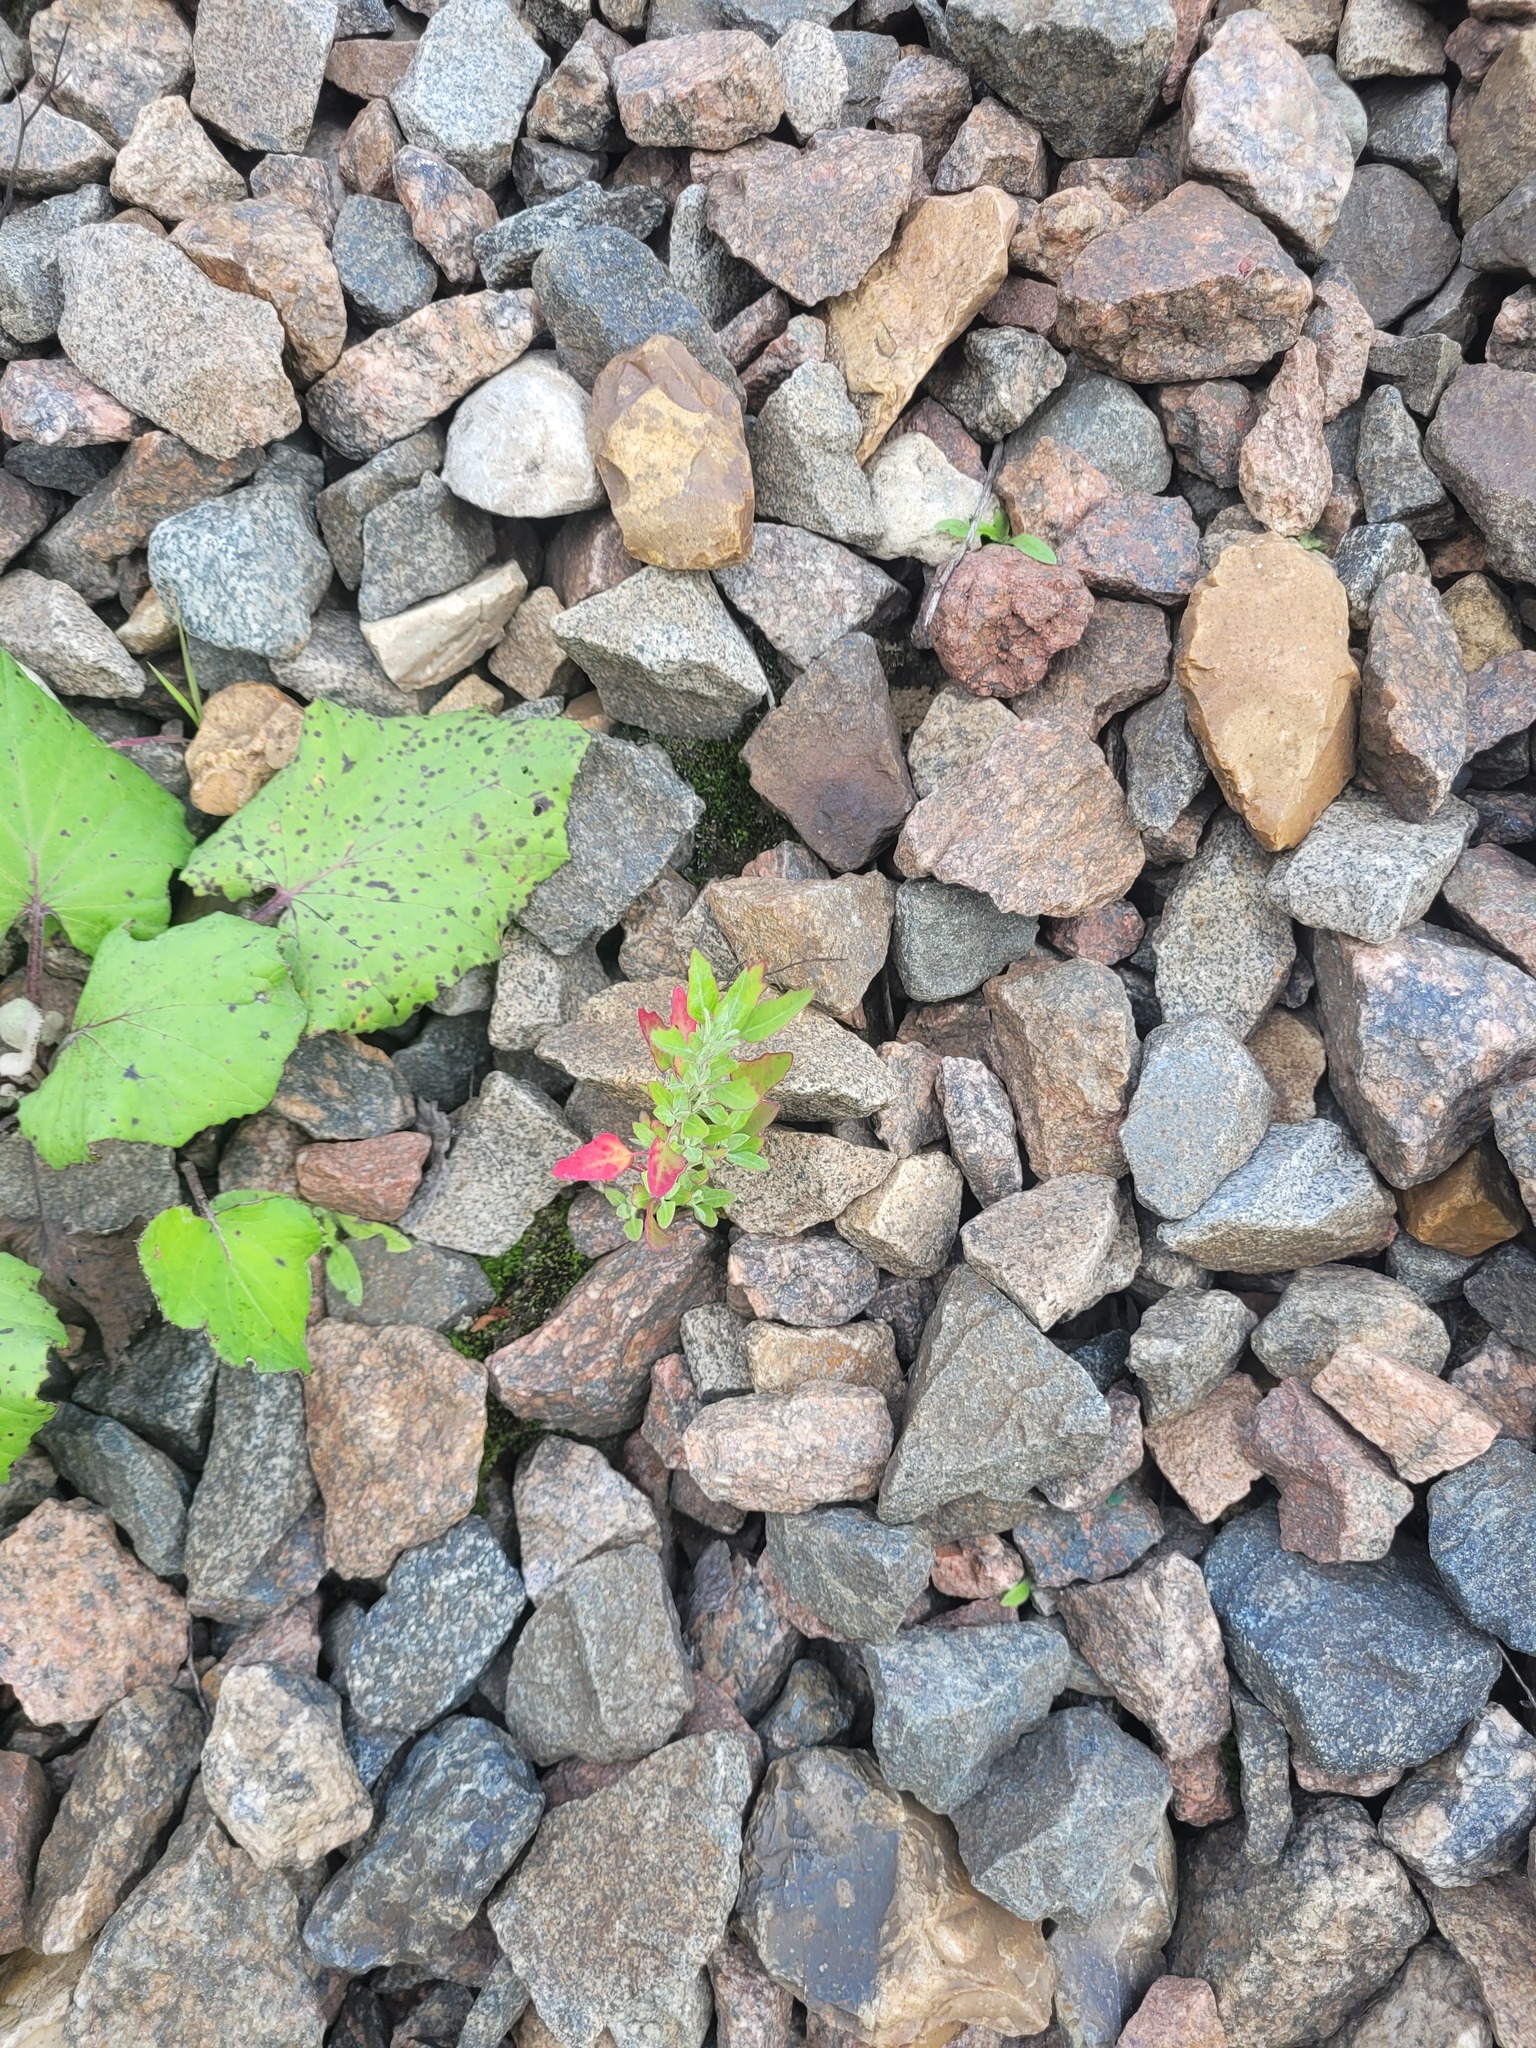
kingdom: Plantae
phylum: Tracheophyta
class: Magnoliopsida
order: Caryophyllales
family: Amaranthaceae
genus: Chenopodium
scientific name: Chenopodium album
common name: Fat-hen
